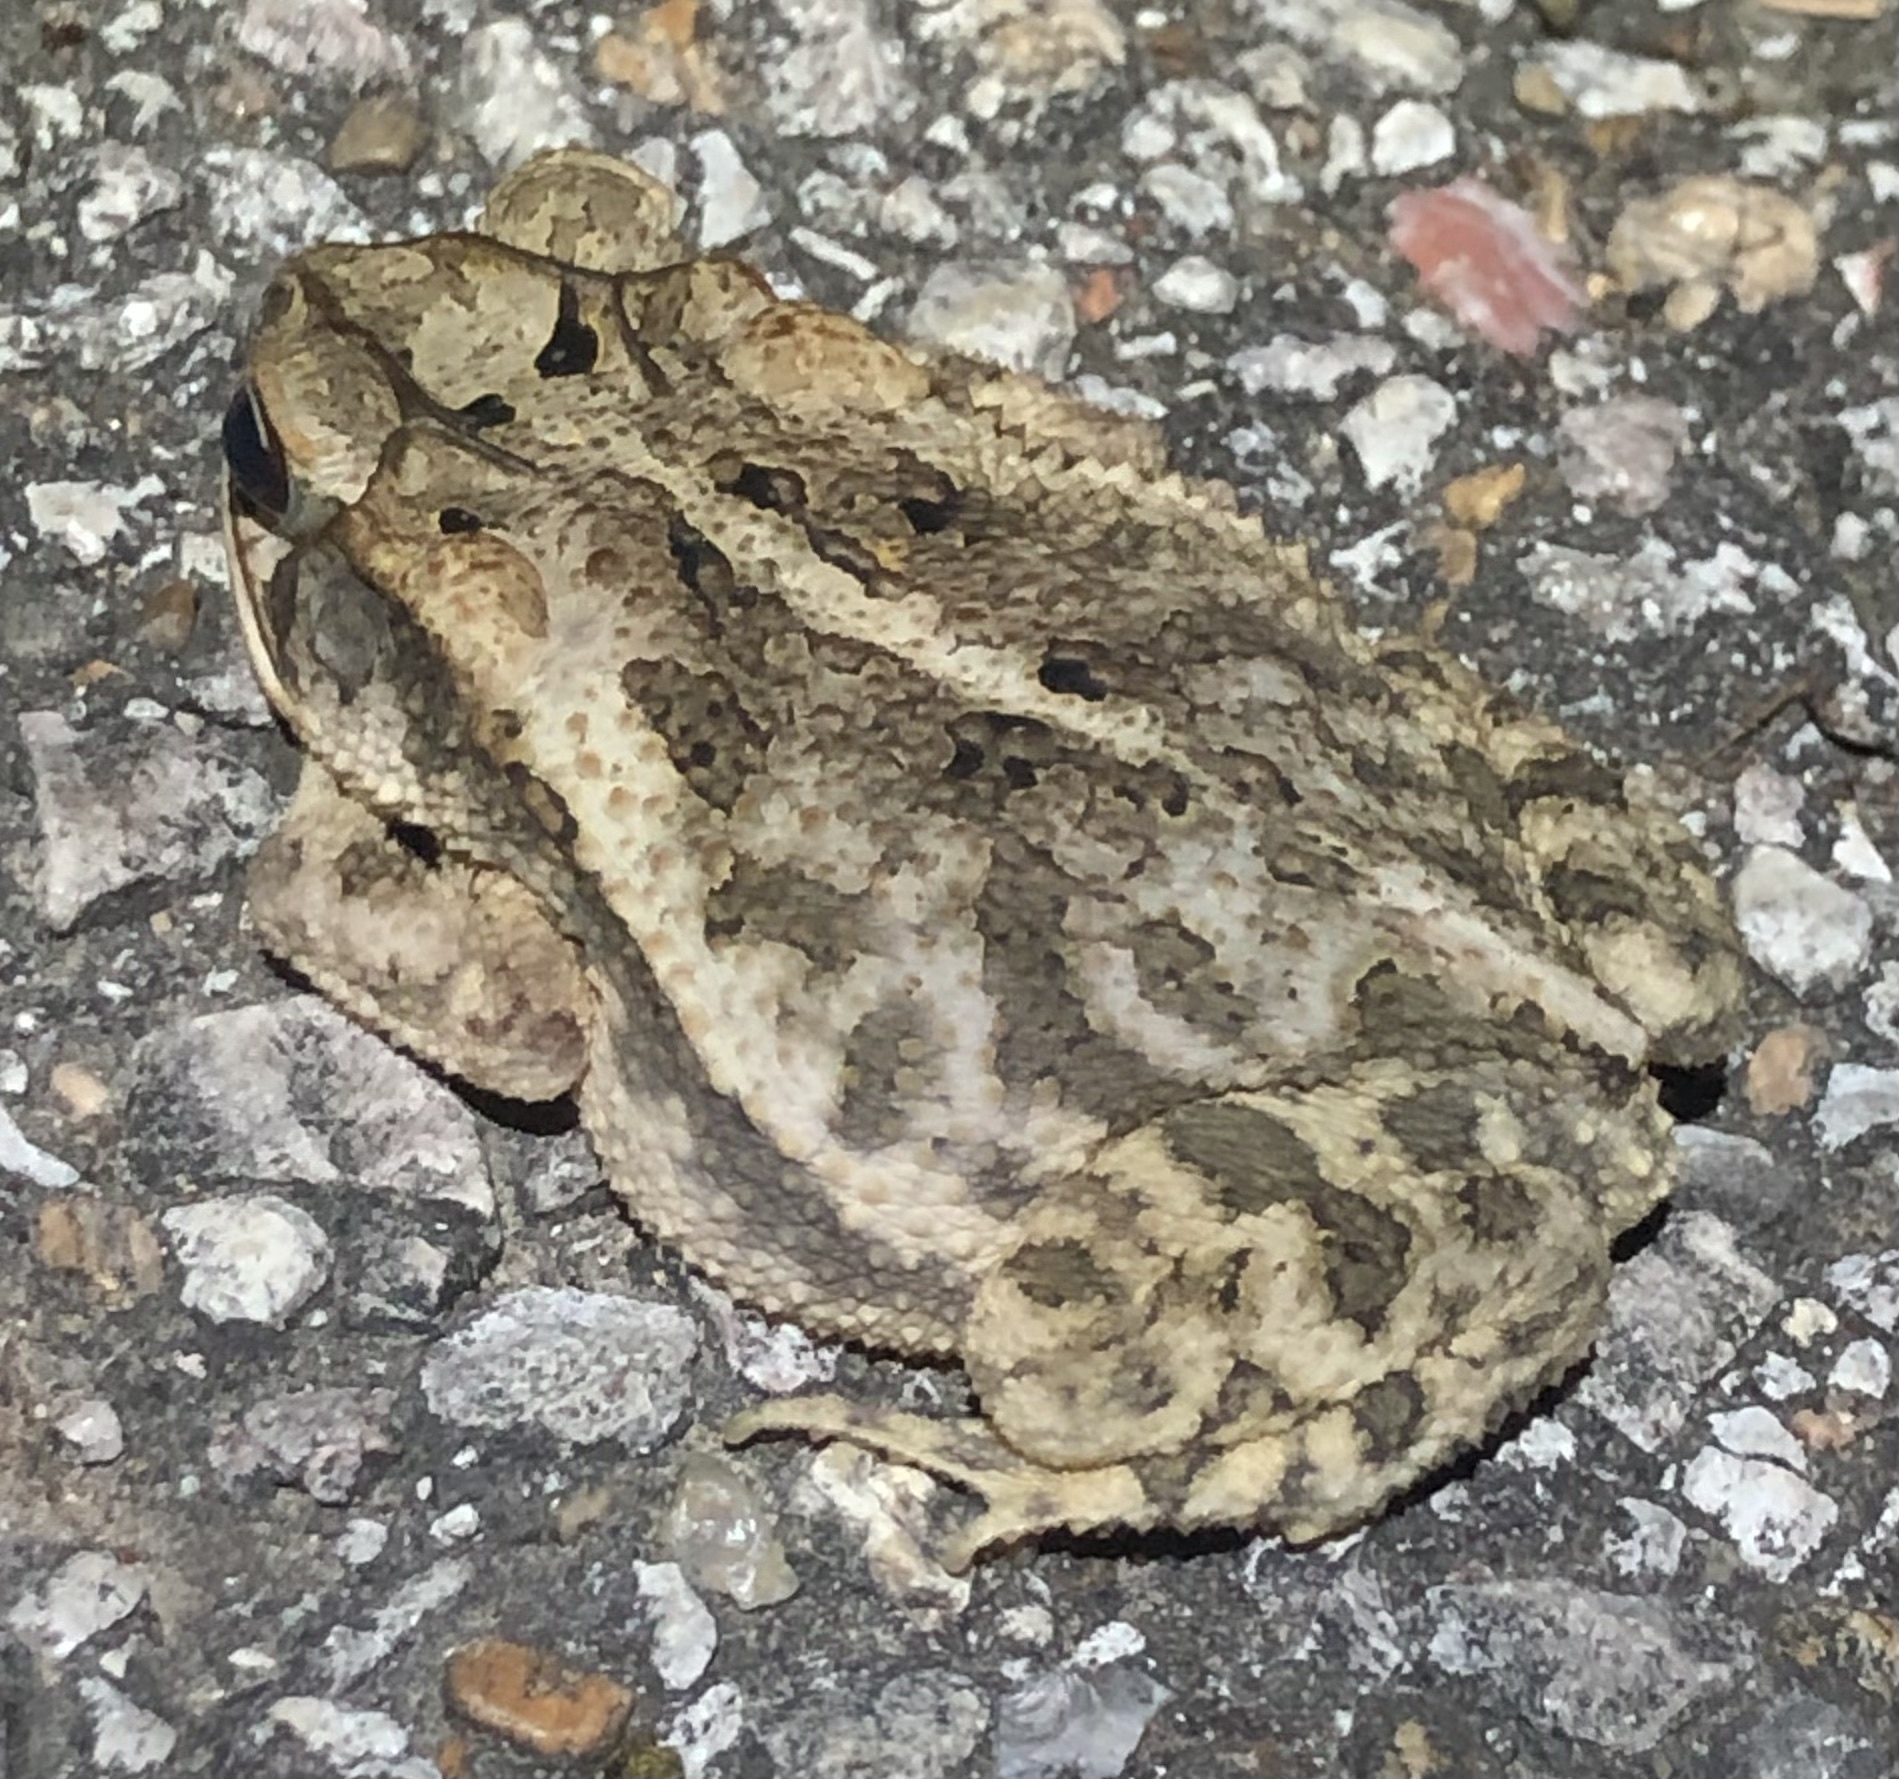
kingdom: Animalia
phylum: Chordata
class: Amphibia
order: Anura
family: Bufonidae
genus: Incilius
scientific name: Incilius nebulifer
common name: Gulf coast toad
